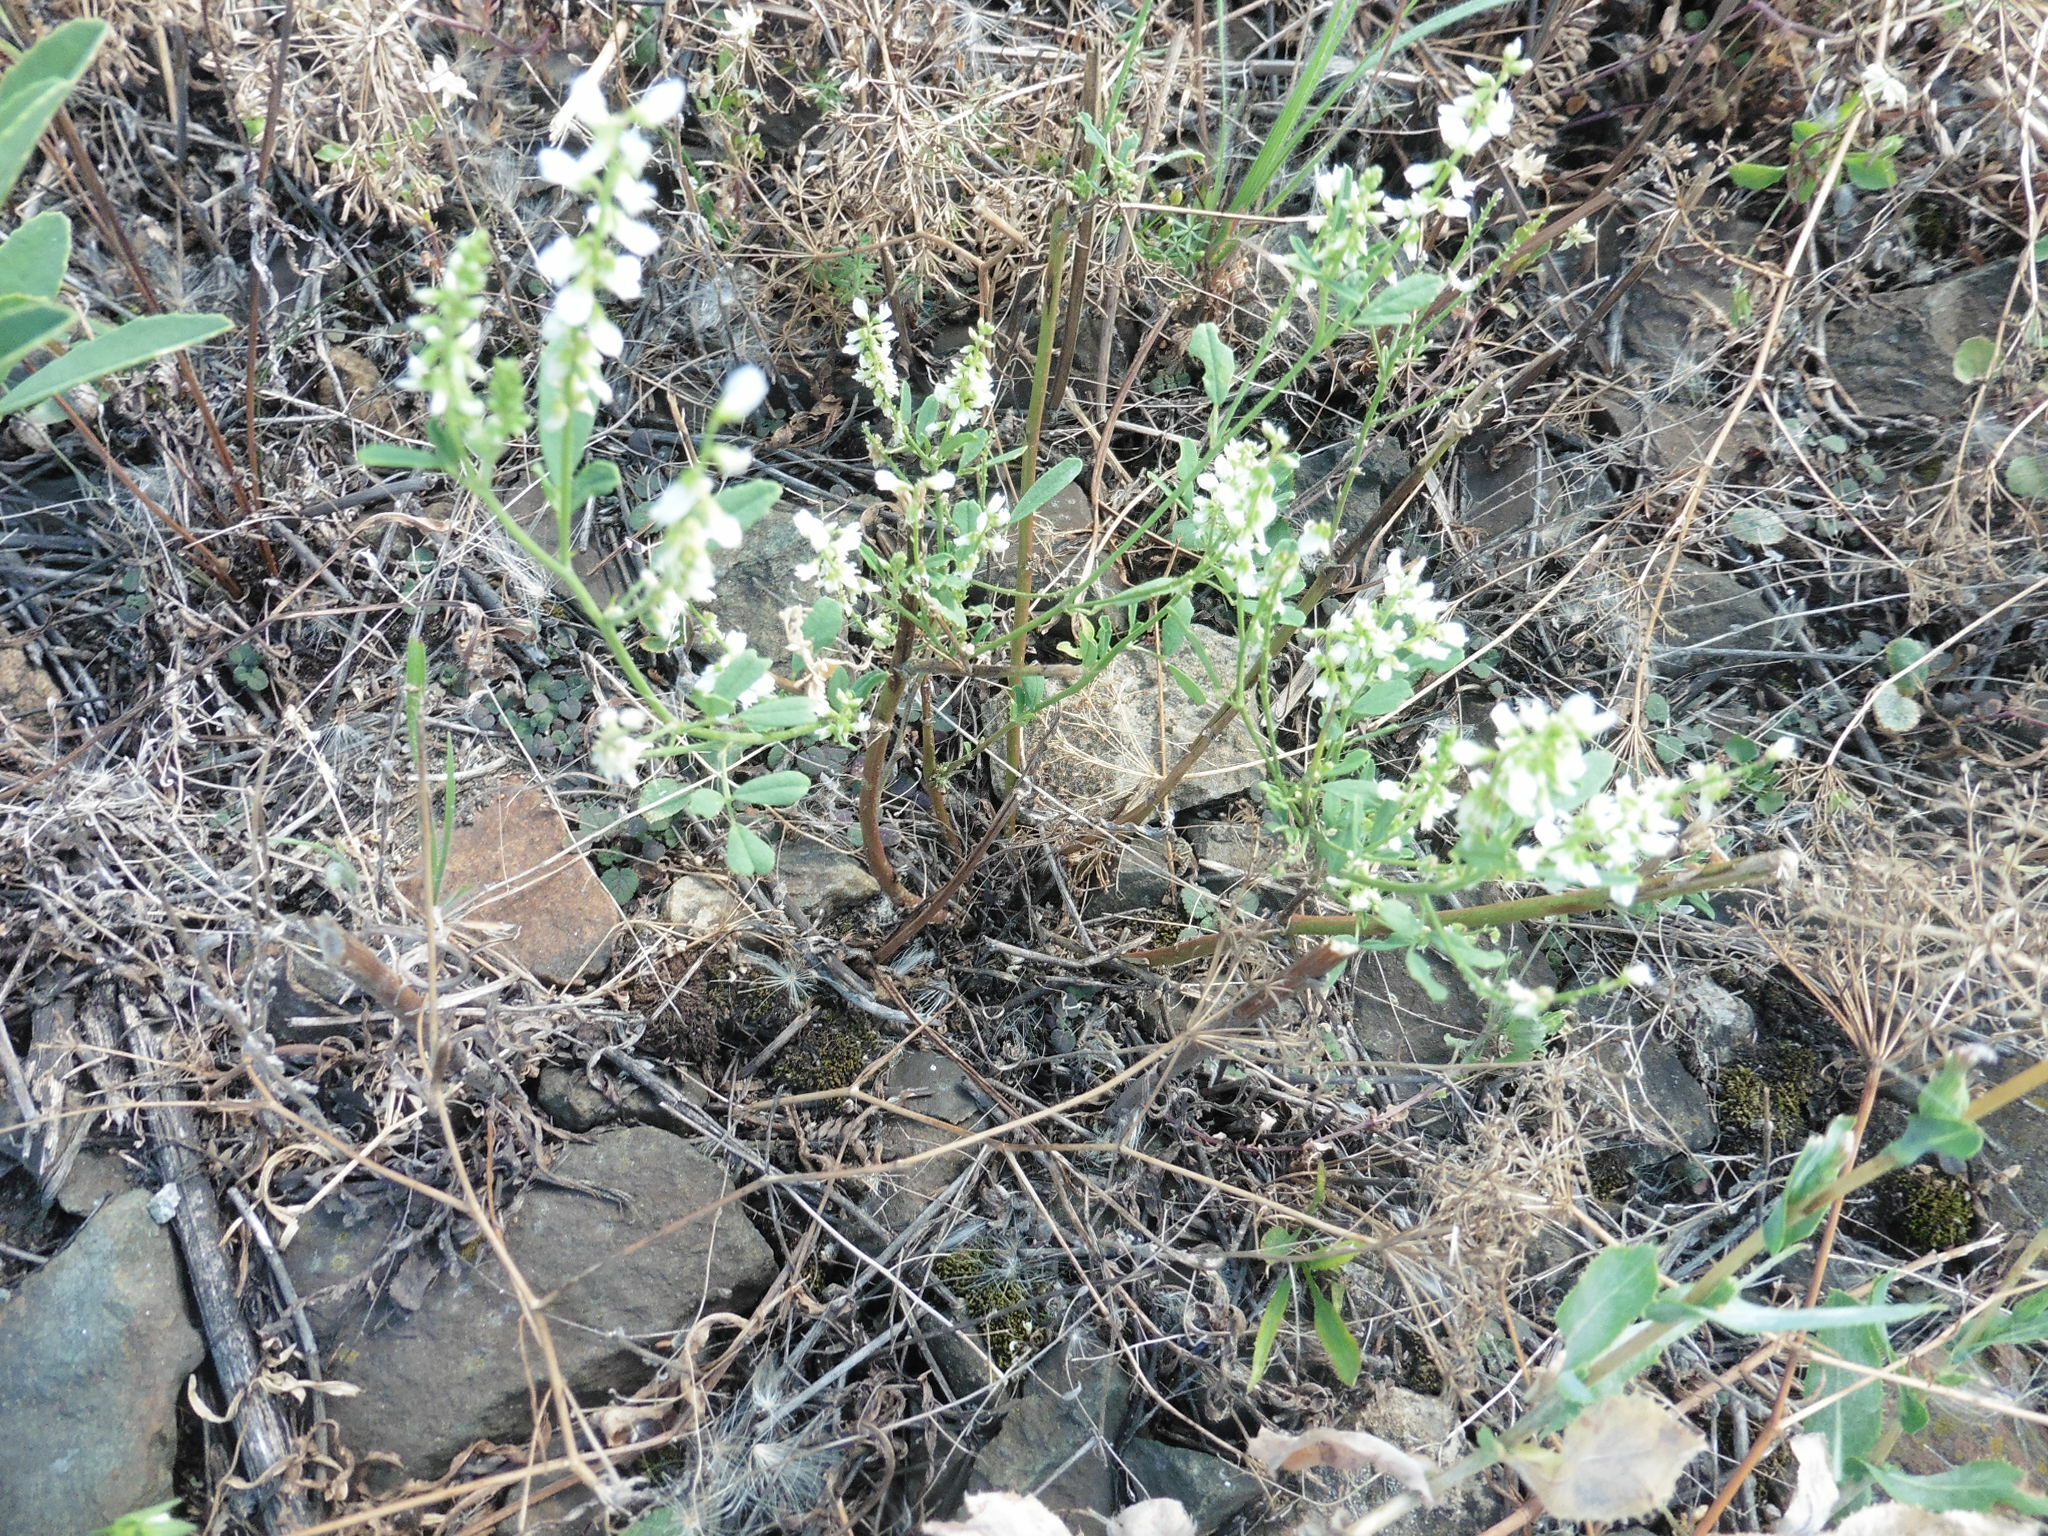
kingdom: Plantae
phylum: Tracheophyta
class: Magnoliopsida
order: Fabales
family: Fabaceae
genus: Melilotus
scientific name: Melilotus albus
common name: White melilot
